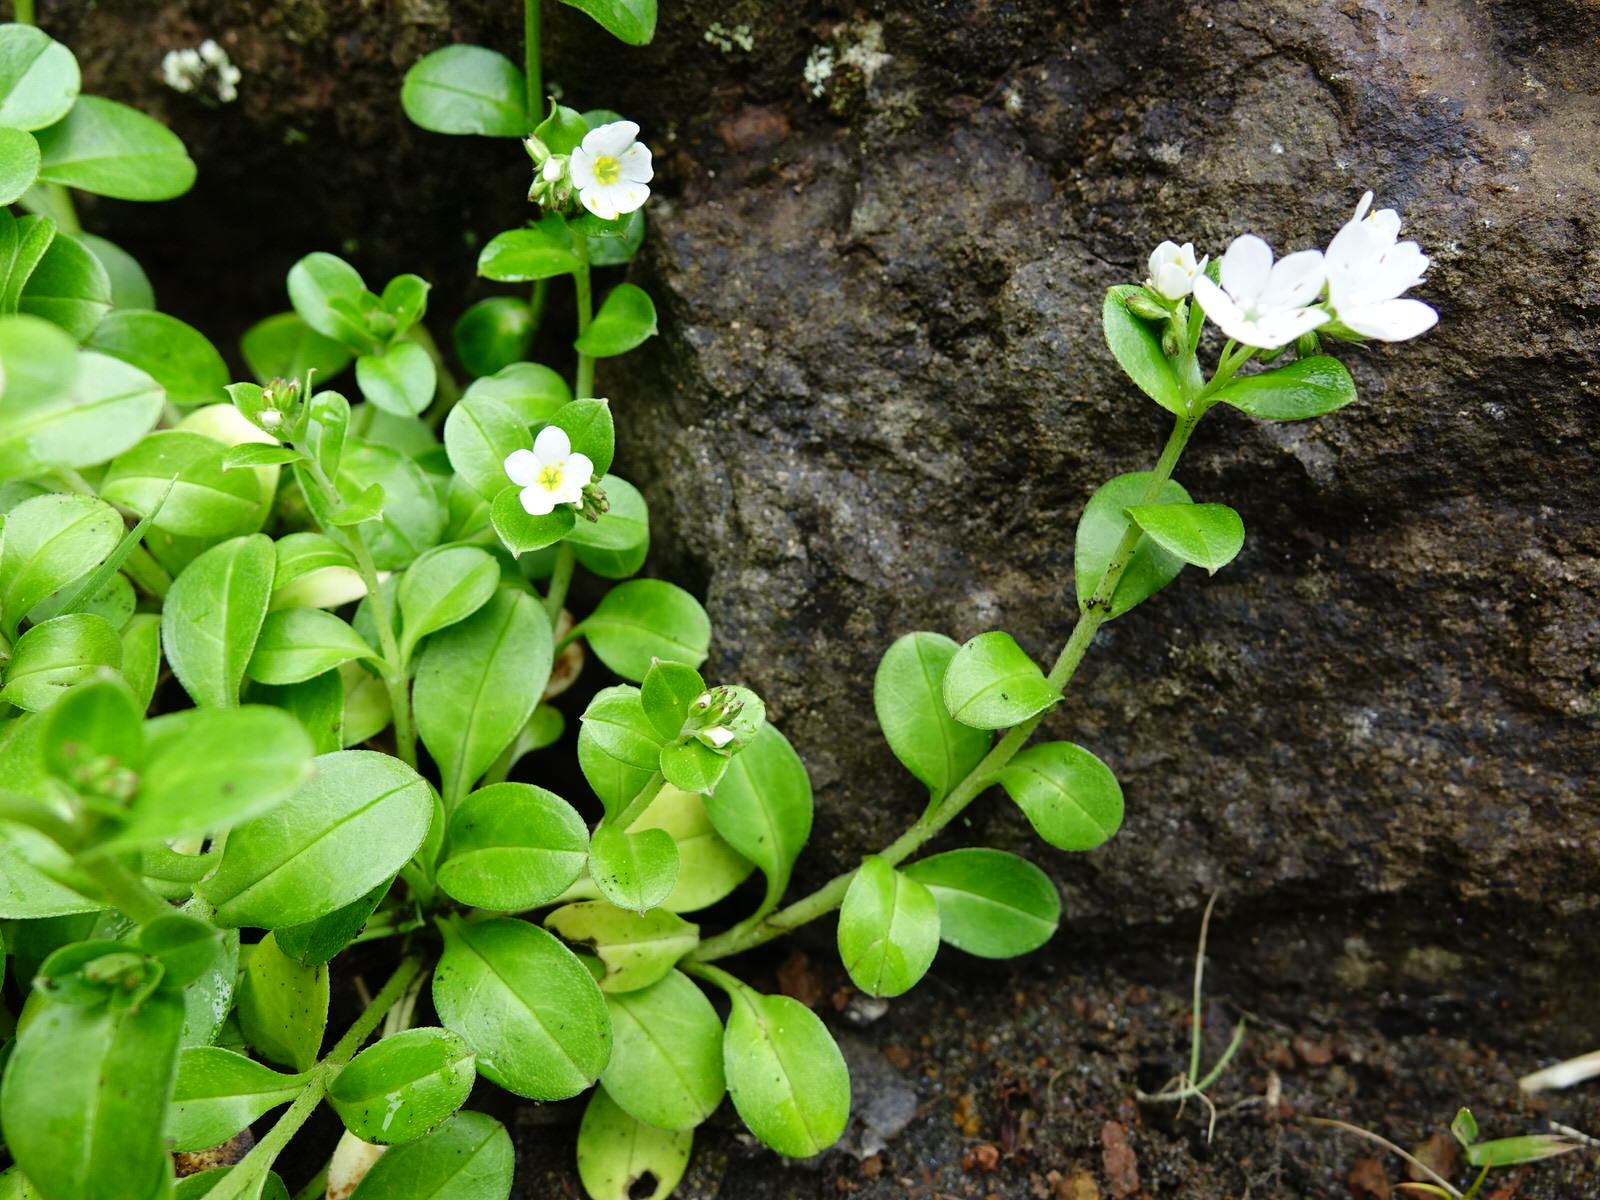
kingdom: Plantae
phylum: Tracheophyta
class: Magnoliopsida
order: Boraginales
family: Boraginaceae
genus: Myosotis
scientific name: Myosotis pansa
